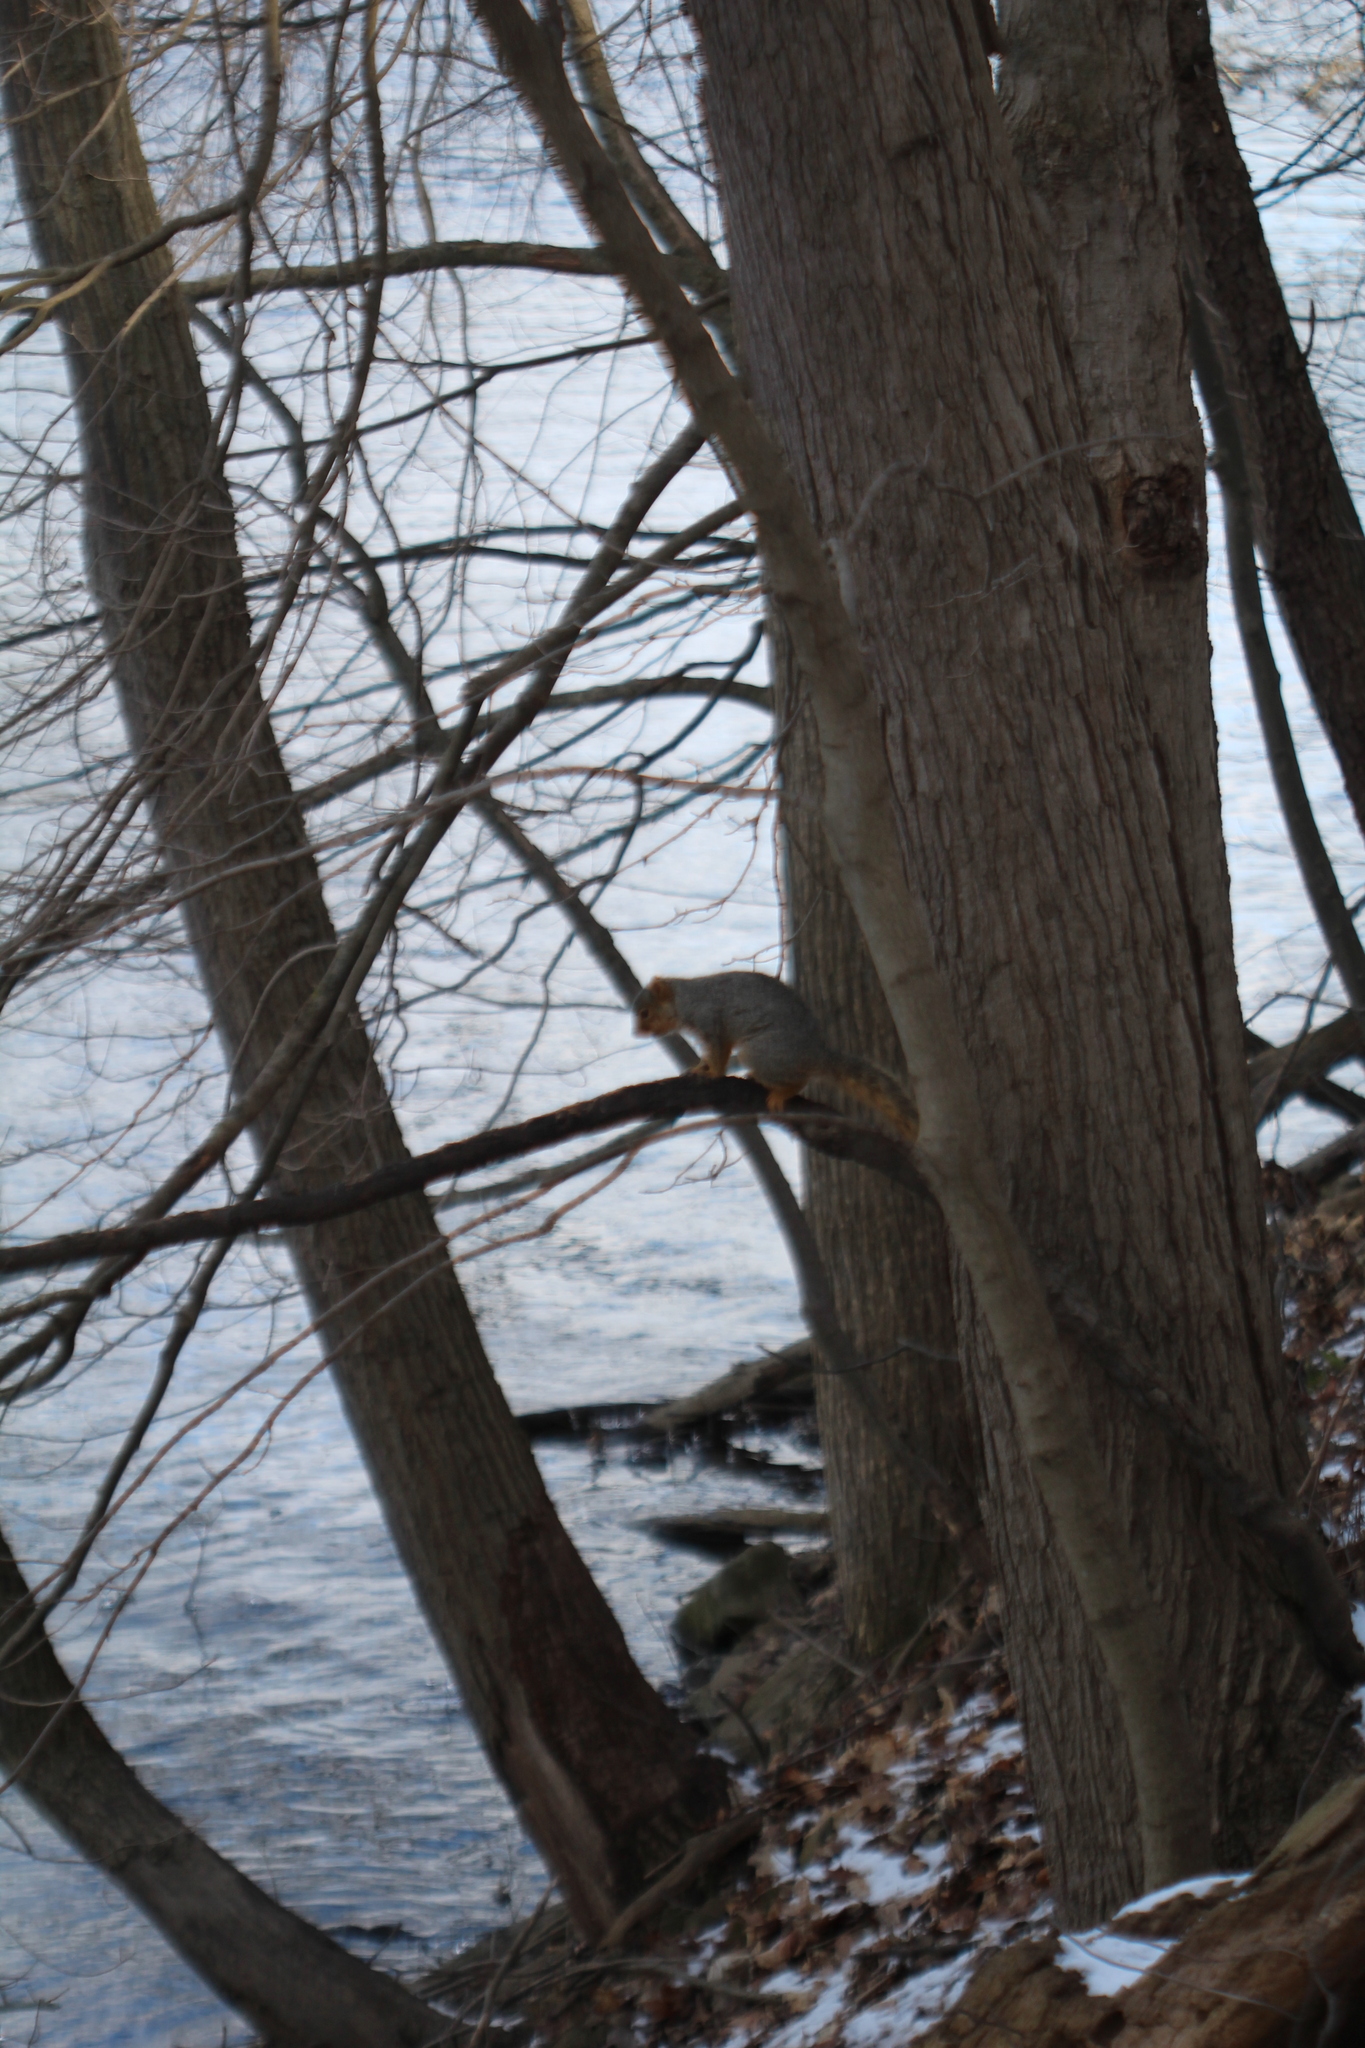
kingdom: Animalia
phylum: Chordata
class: Mammalia
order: Rodentia
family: Sciuridae
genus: Sciurus
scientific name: Sciurus niger
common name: Fox squirrel
